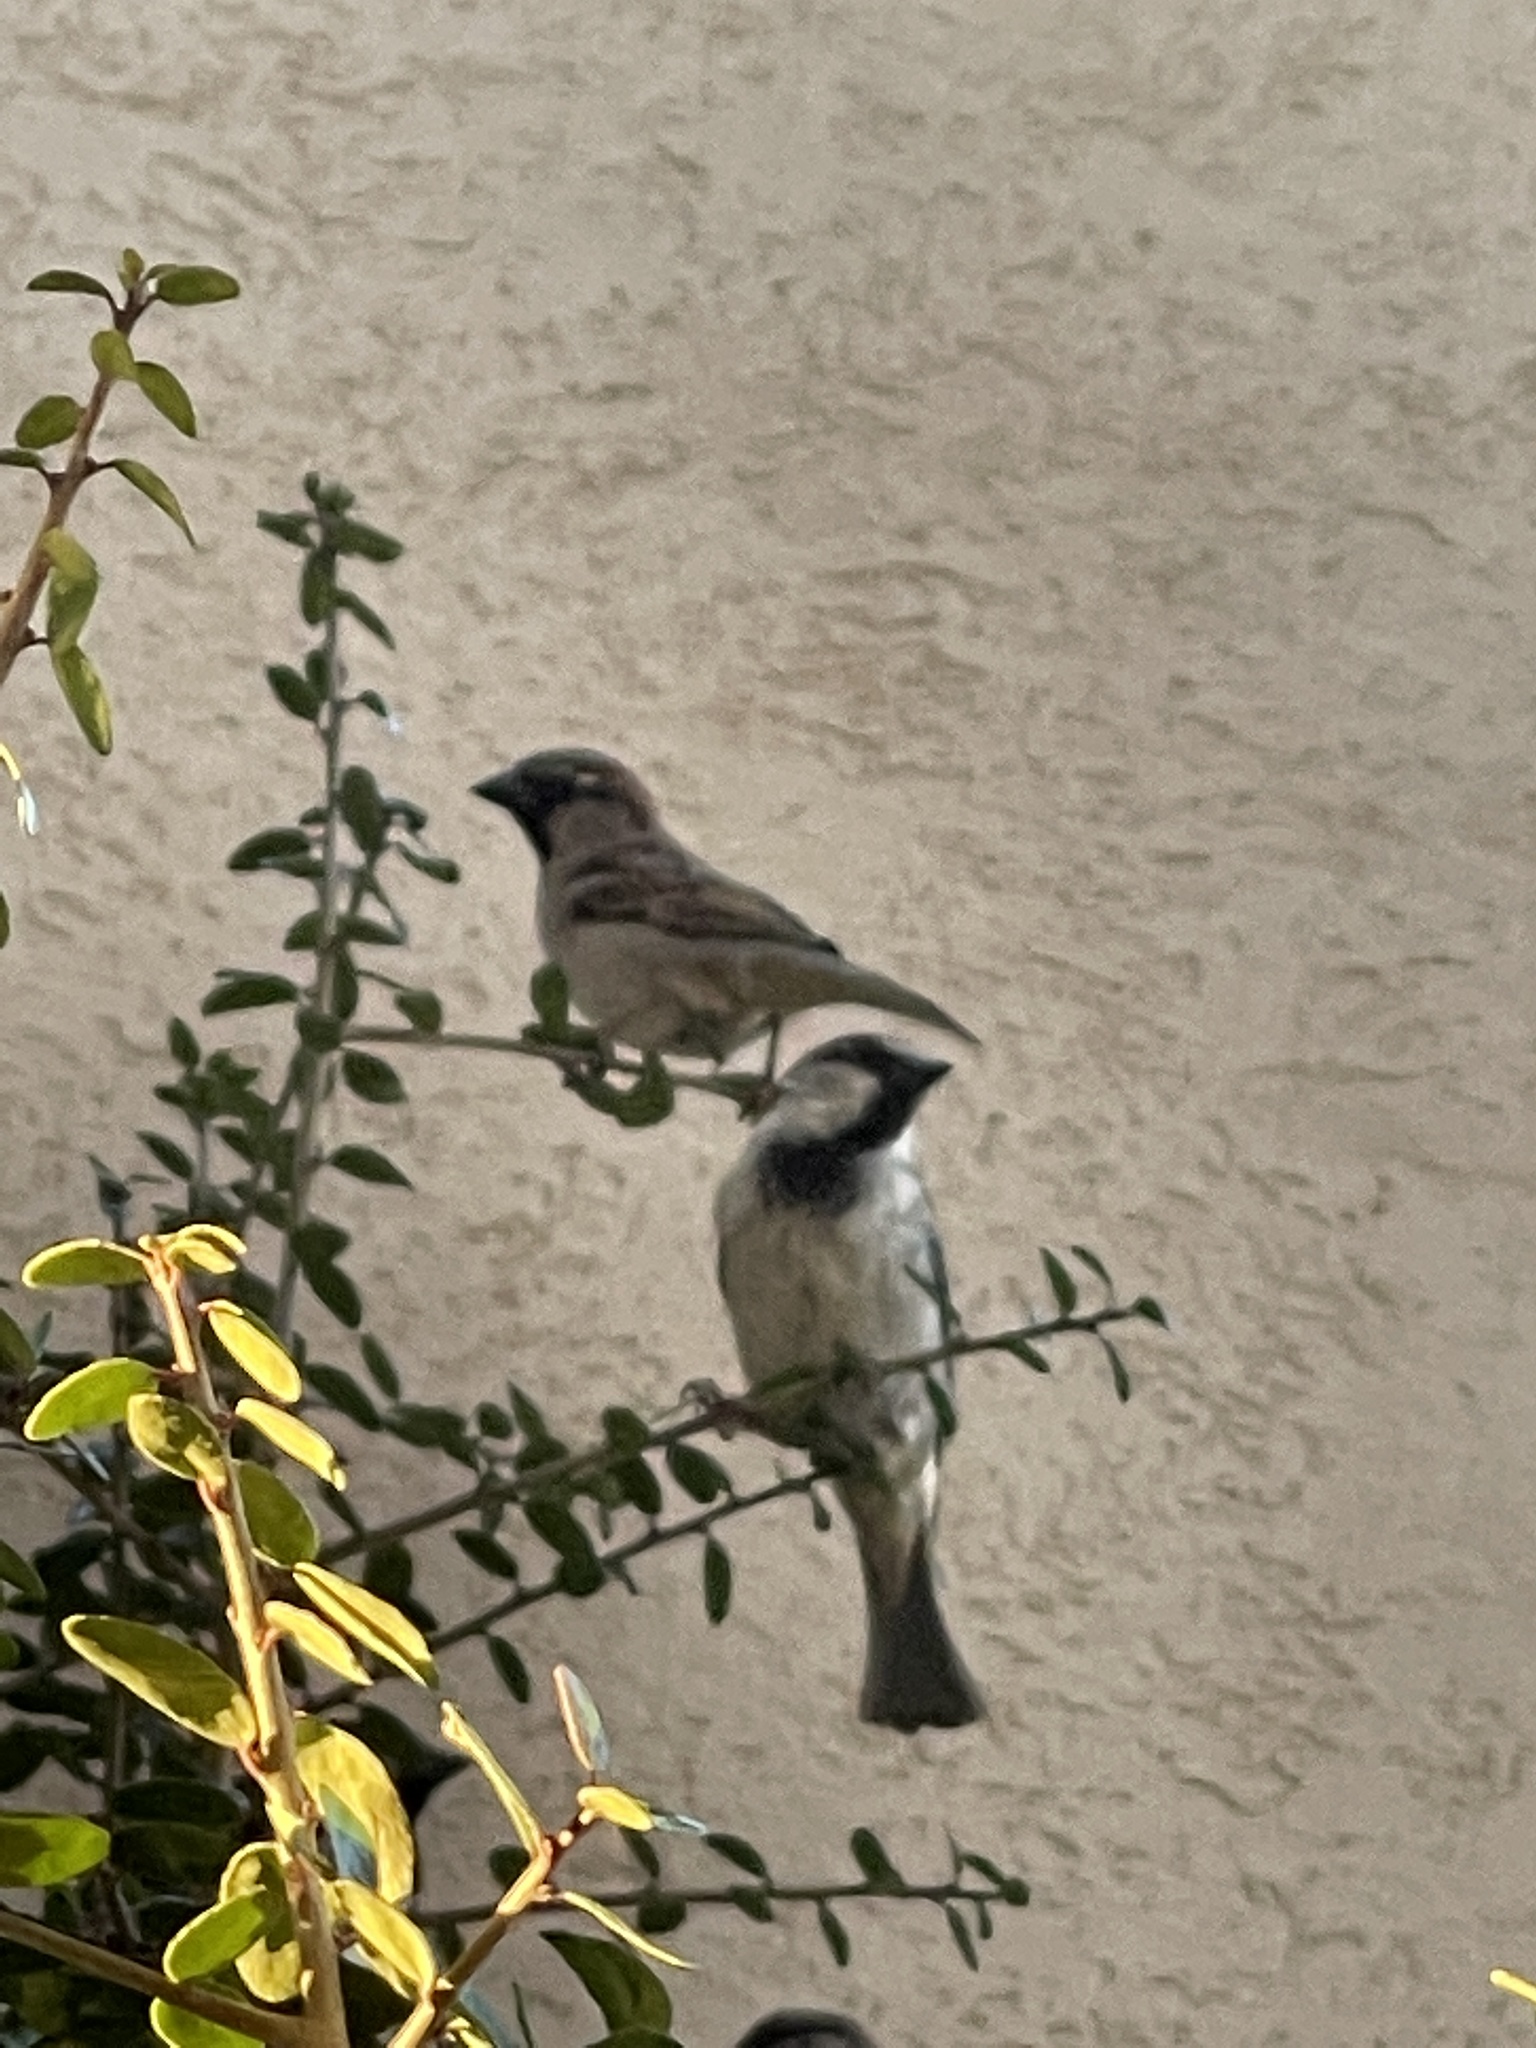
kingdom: Animalia
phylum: Chordata
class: Aves
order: Passeriformes
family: Passeridae
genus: Passer
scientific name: Passer domesticus
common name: House sparrow
